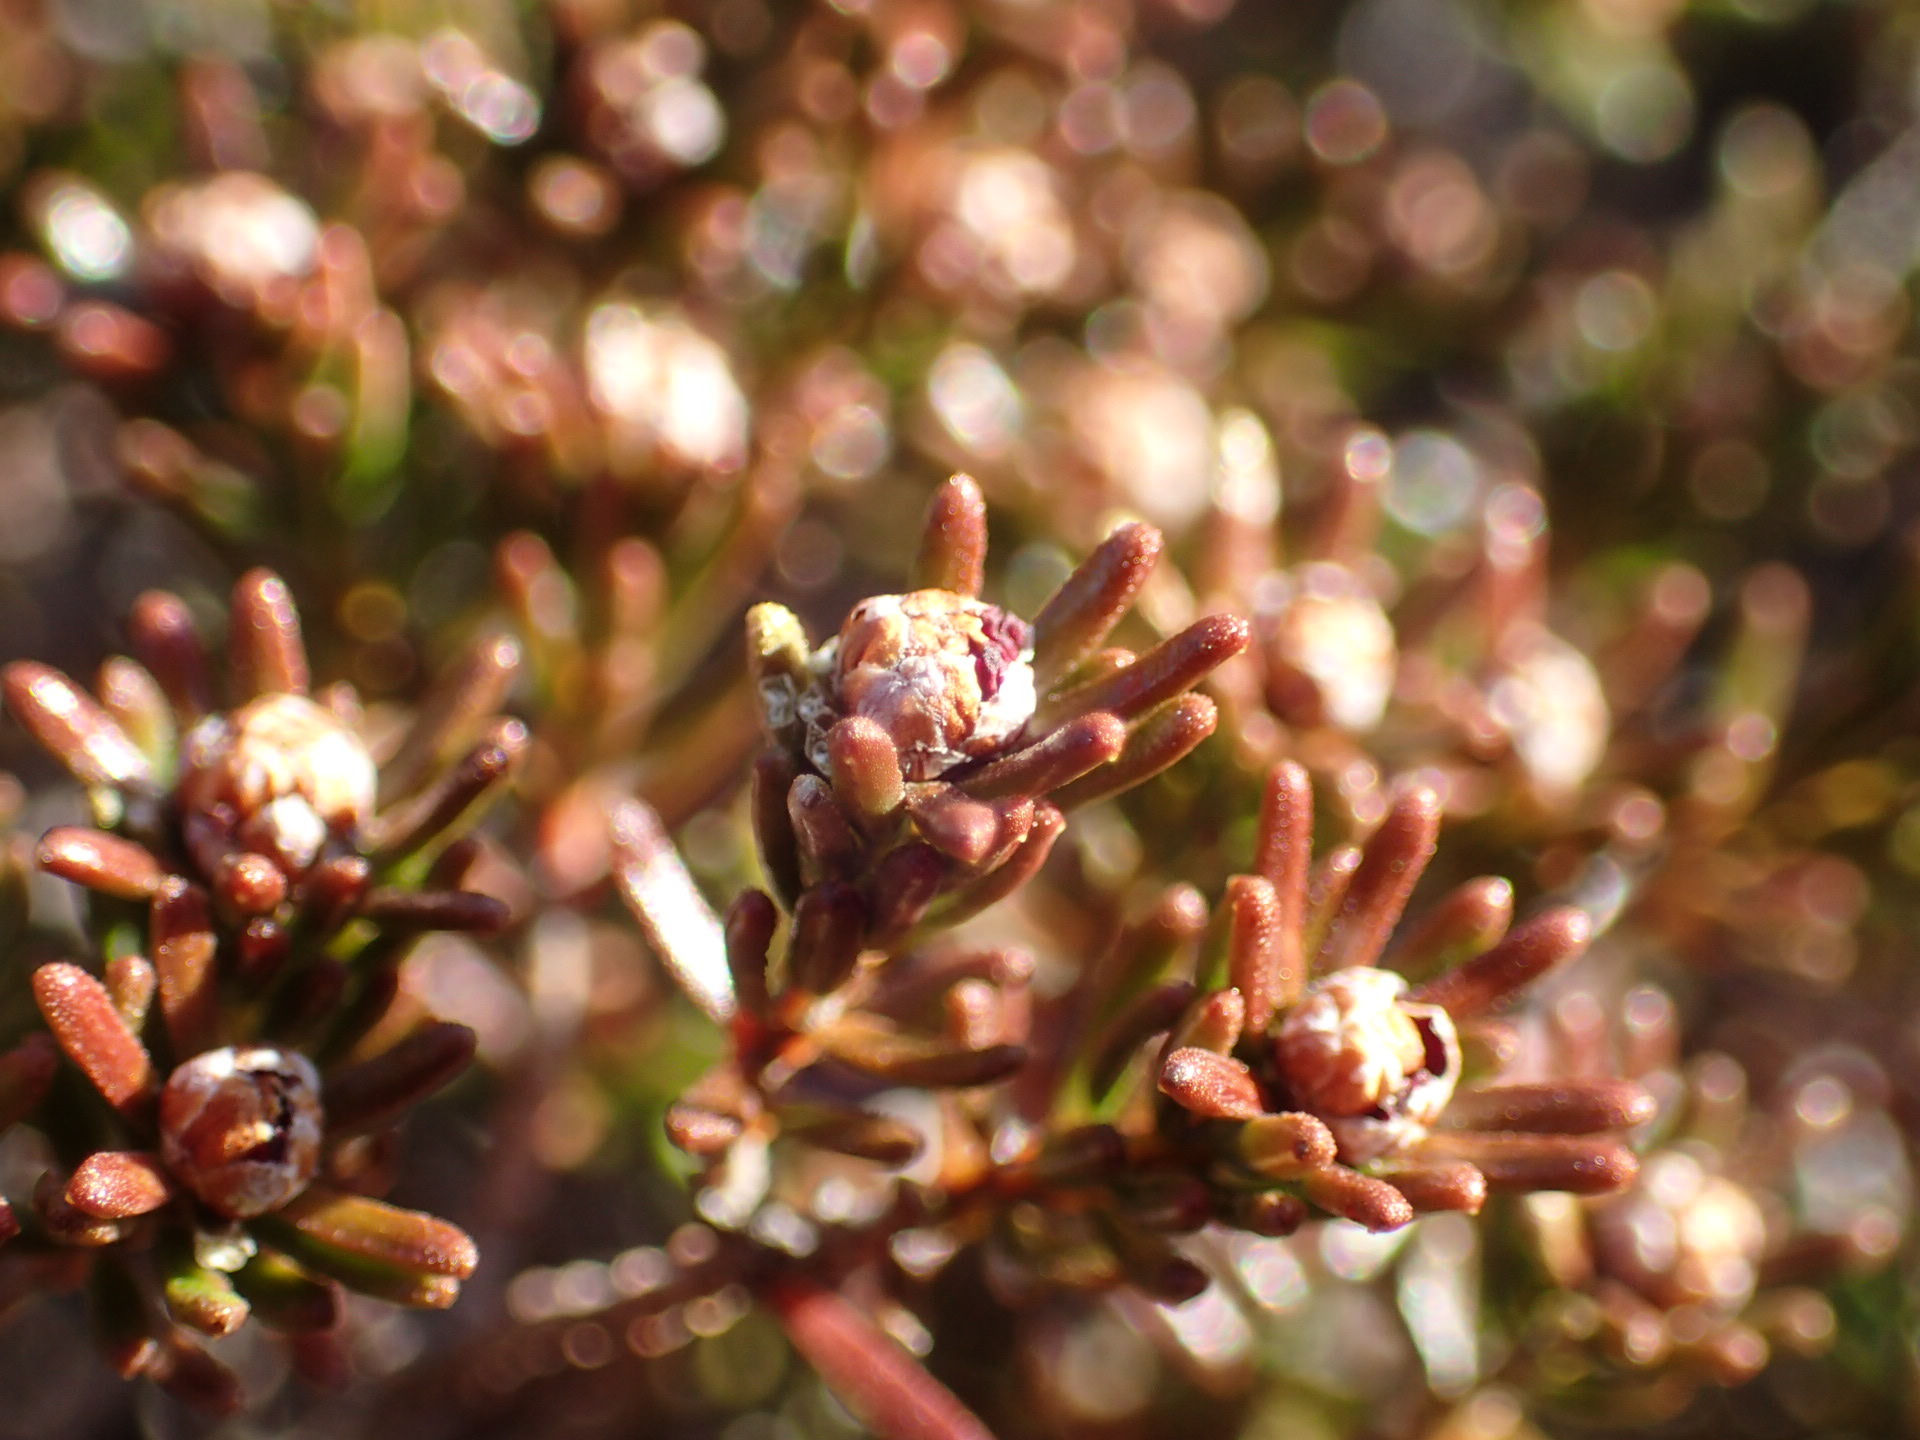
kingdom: Plantae
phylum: Tracheophyta
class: Magnoliopsida
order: Ericales
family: Ericaceae
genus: Corema
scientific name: Corema conradii
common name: Broom-crowberry
